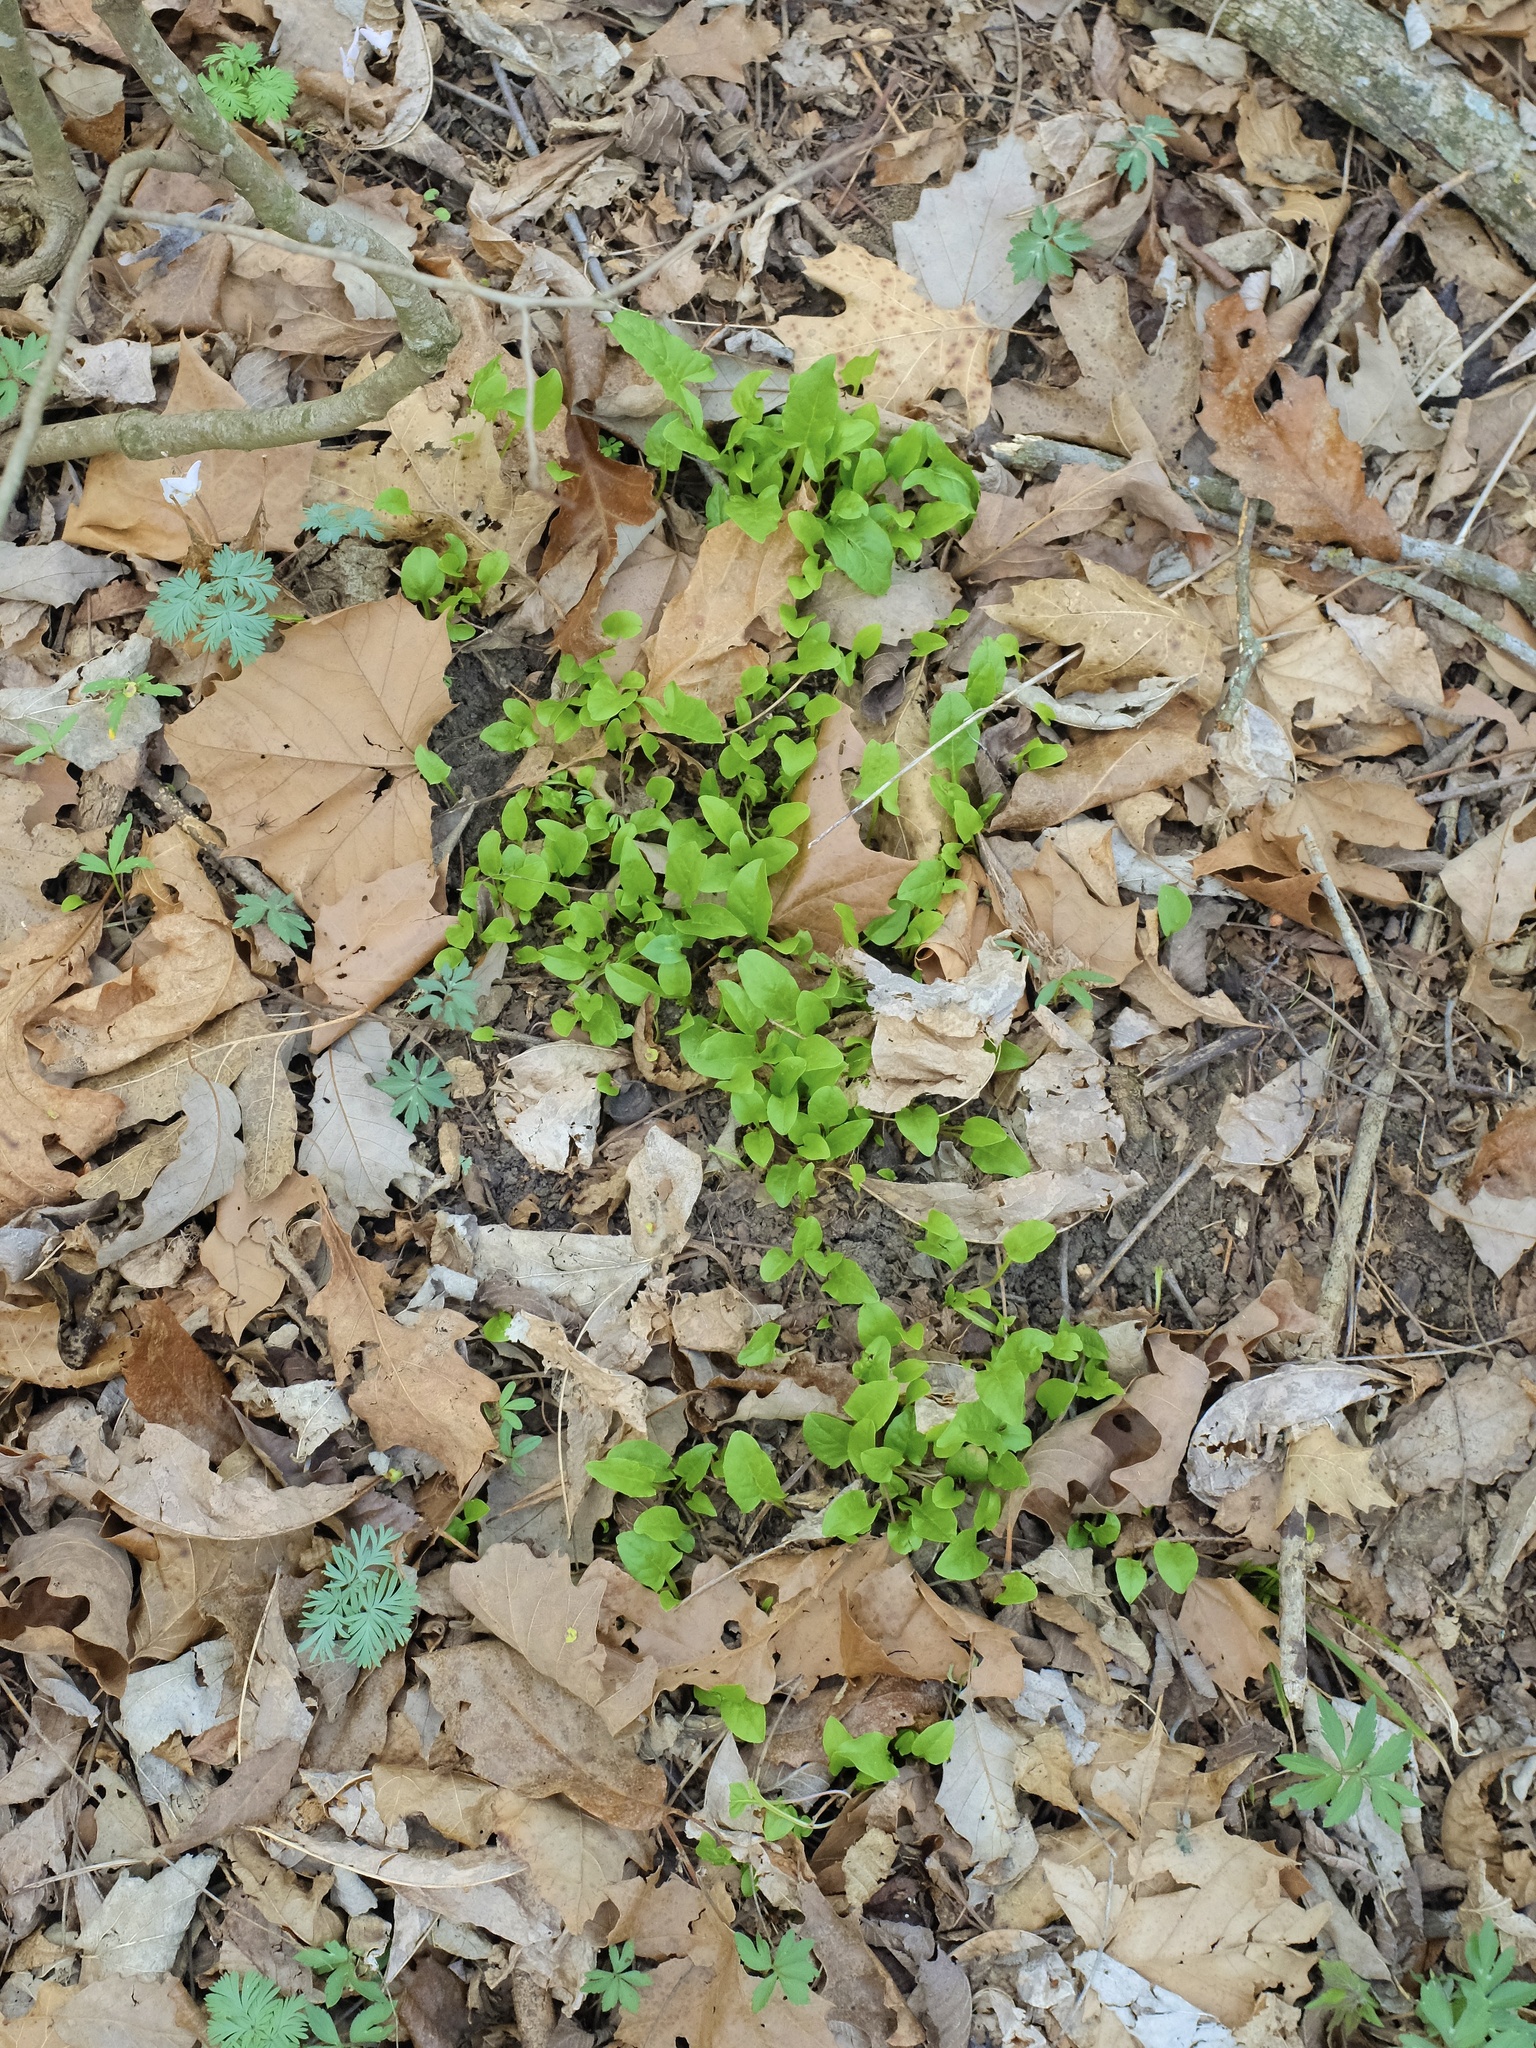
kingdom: Plantae
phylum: Tracheophyta
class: Magnoliopsida
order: Asterales
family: Asteraceae
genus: Nabalus
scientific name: Nabalus crepidineus
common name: Nodding rattlesnakeroot
